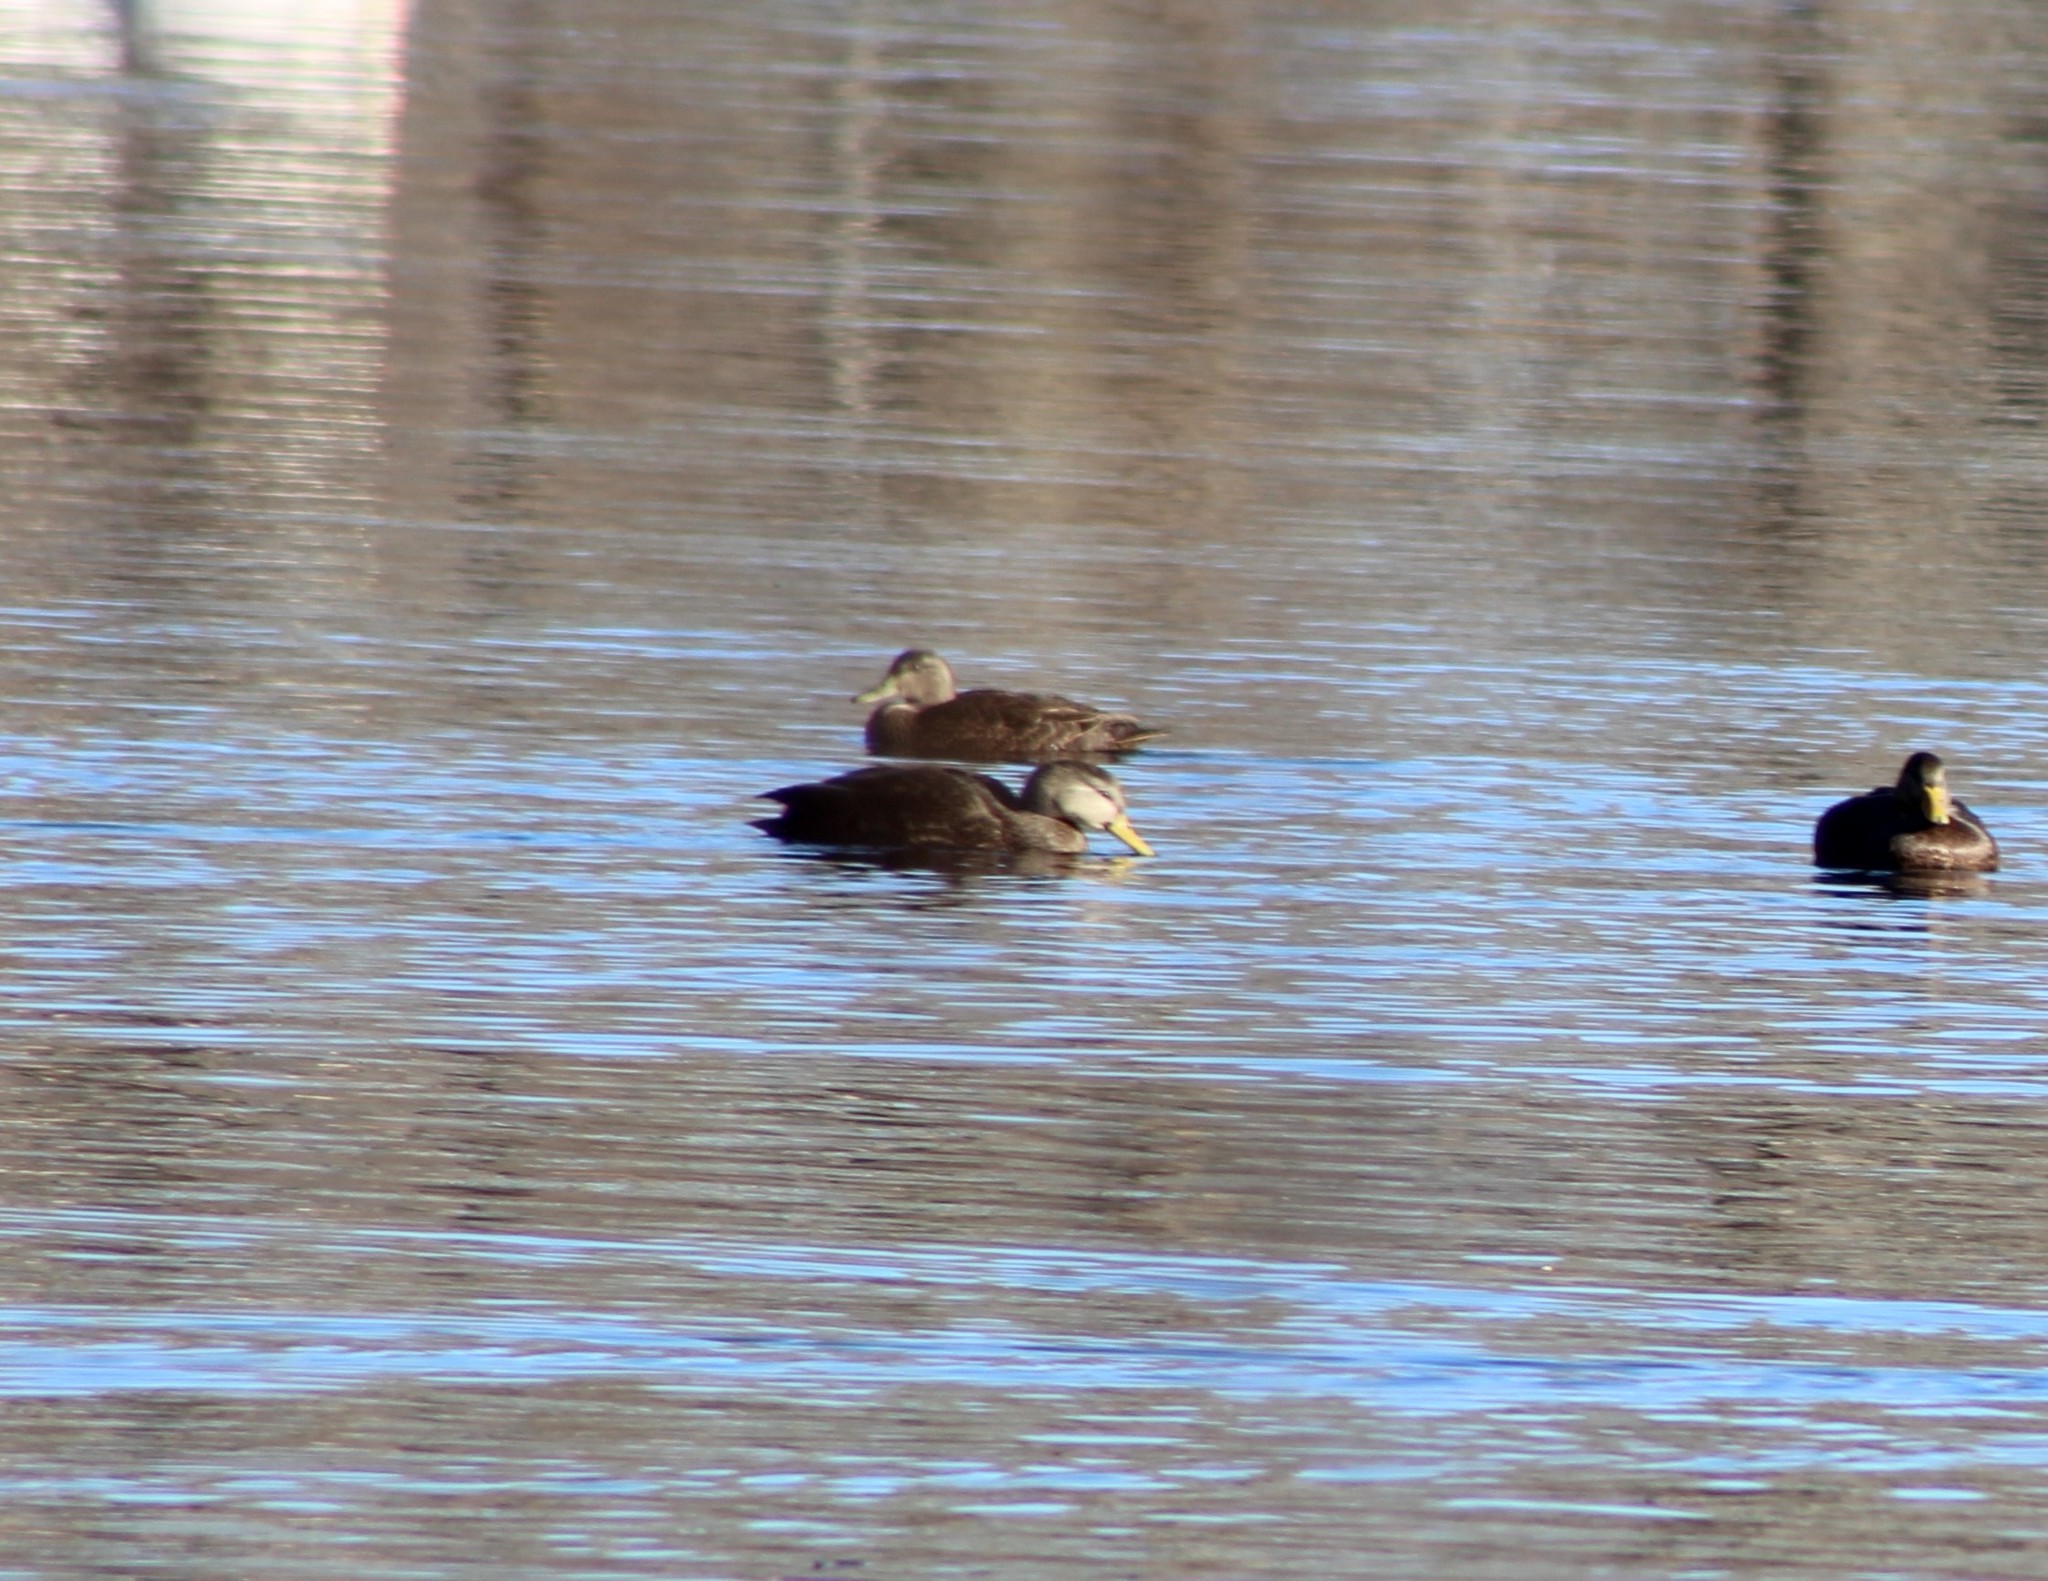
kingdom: Animalia
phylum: Chordata
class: Aves
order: Anseriformes
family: Anatidae
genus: Anas
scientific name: Anas rubripes
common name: American black duck
